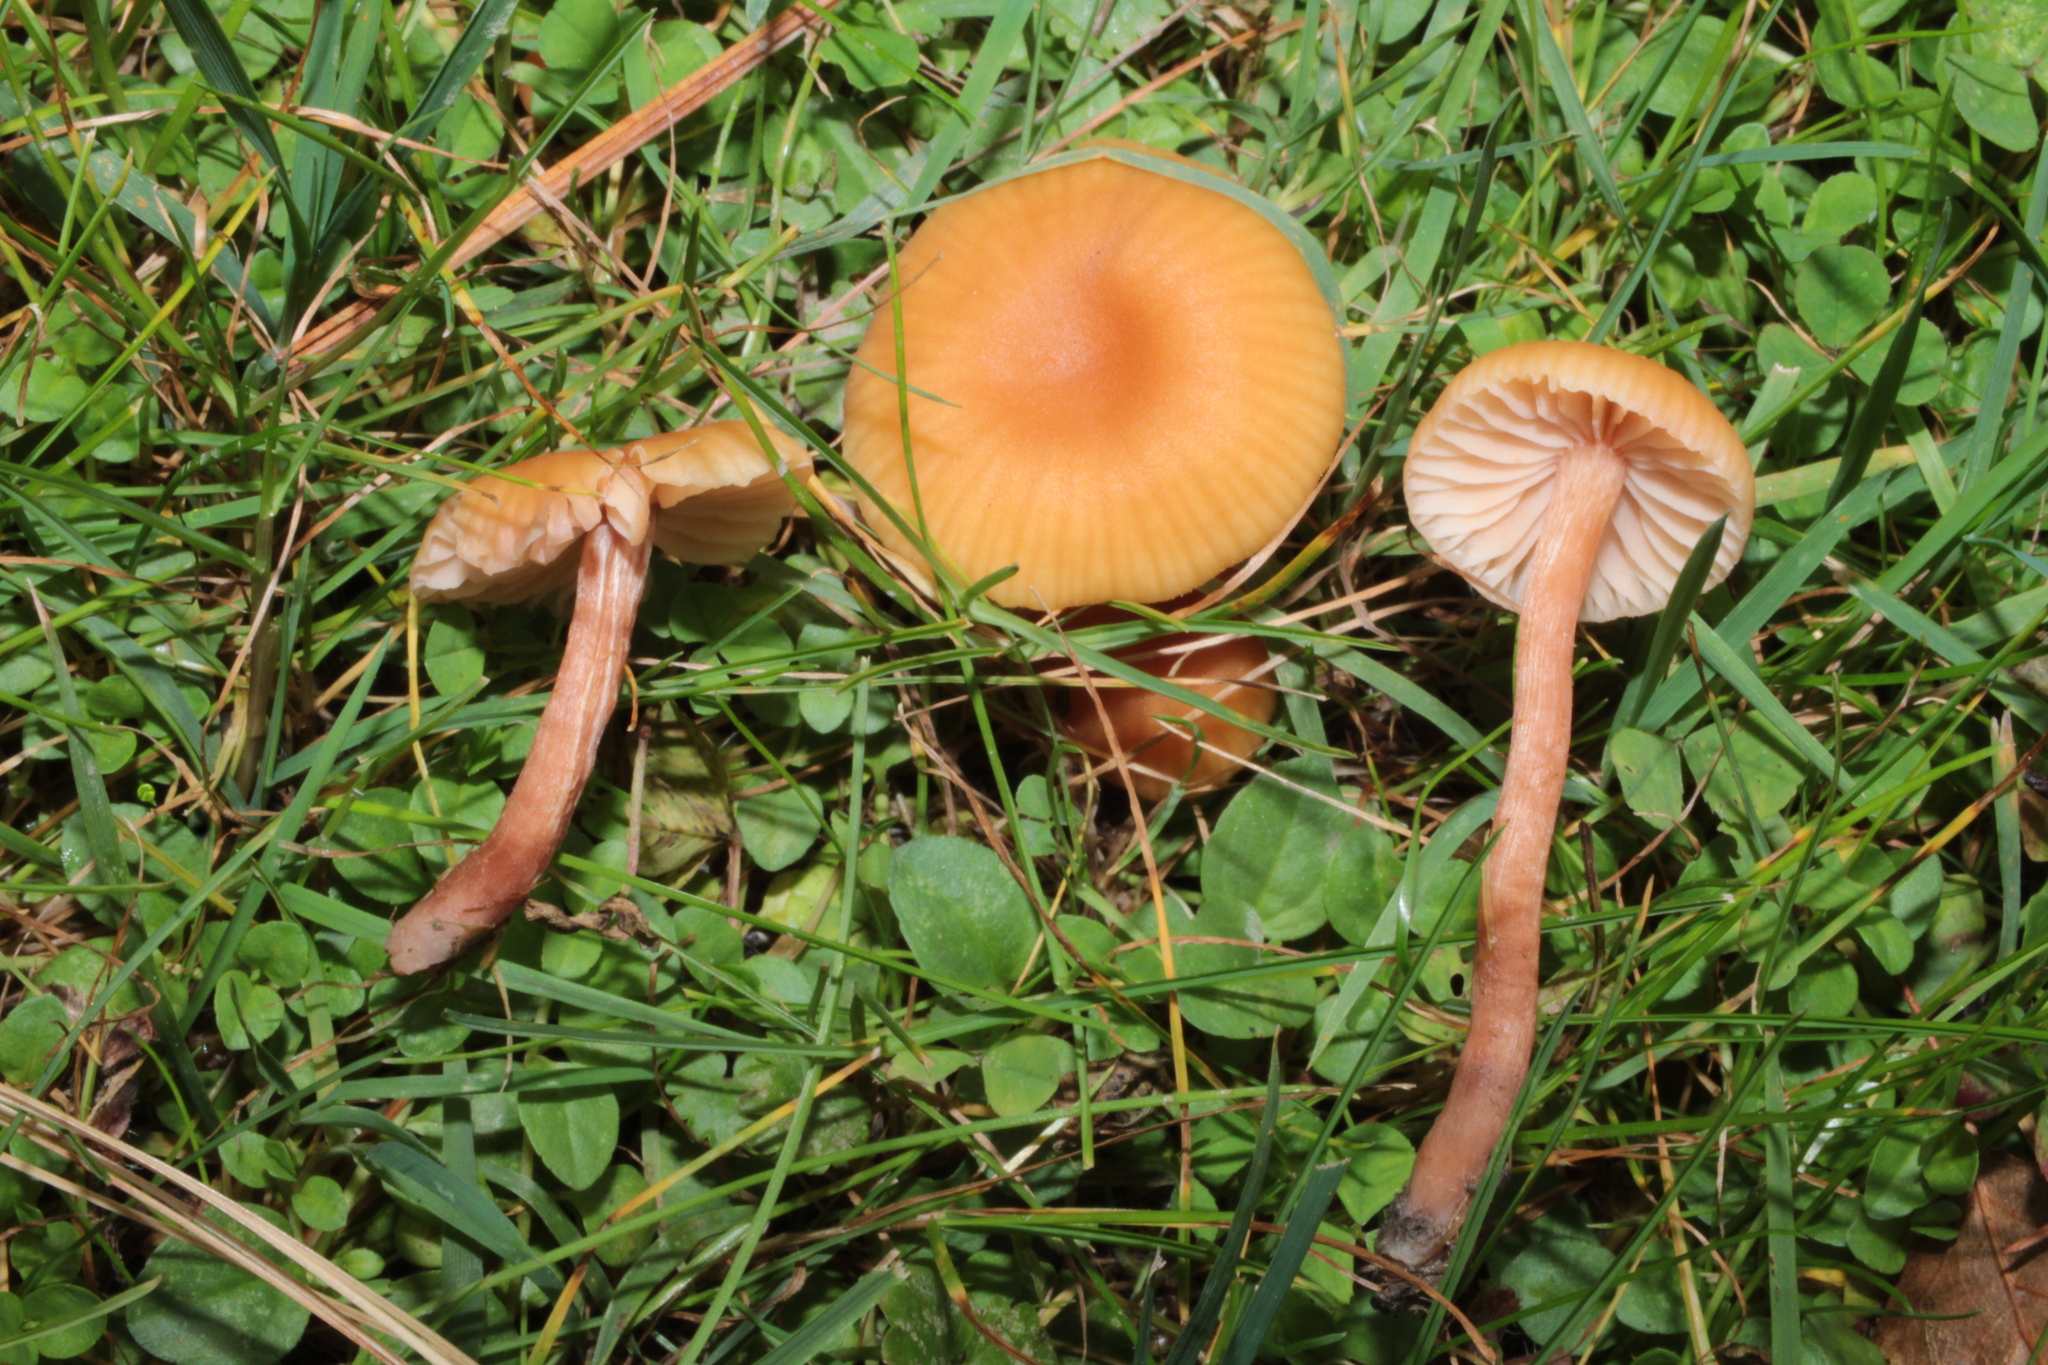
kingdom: Fungi
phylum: Basidiomycota
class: Agaricomycetes
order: Agaricales
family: Hydnangiaceae
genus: Laccaria
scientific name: Laccaria laccata
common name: Deceiver
